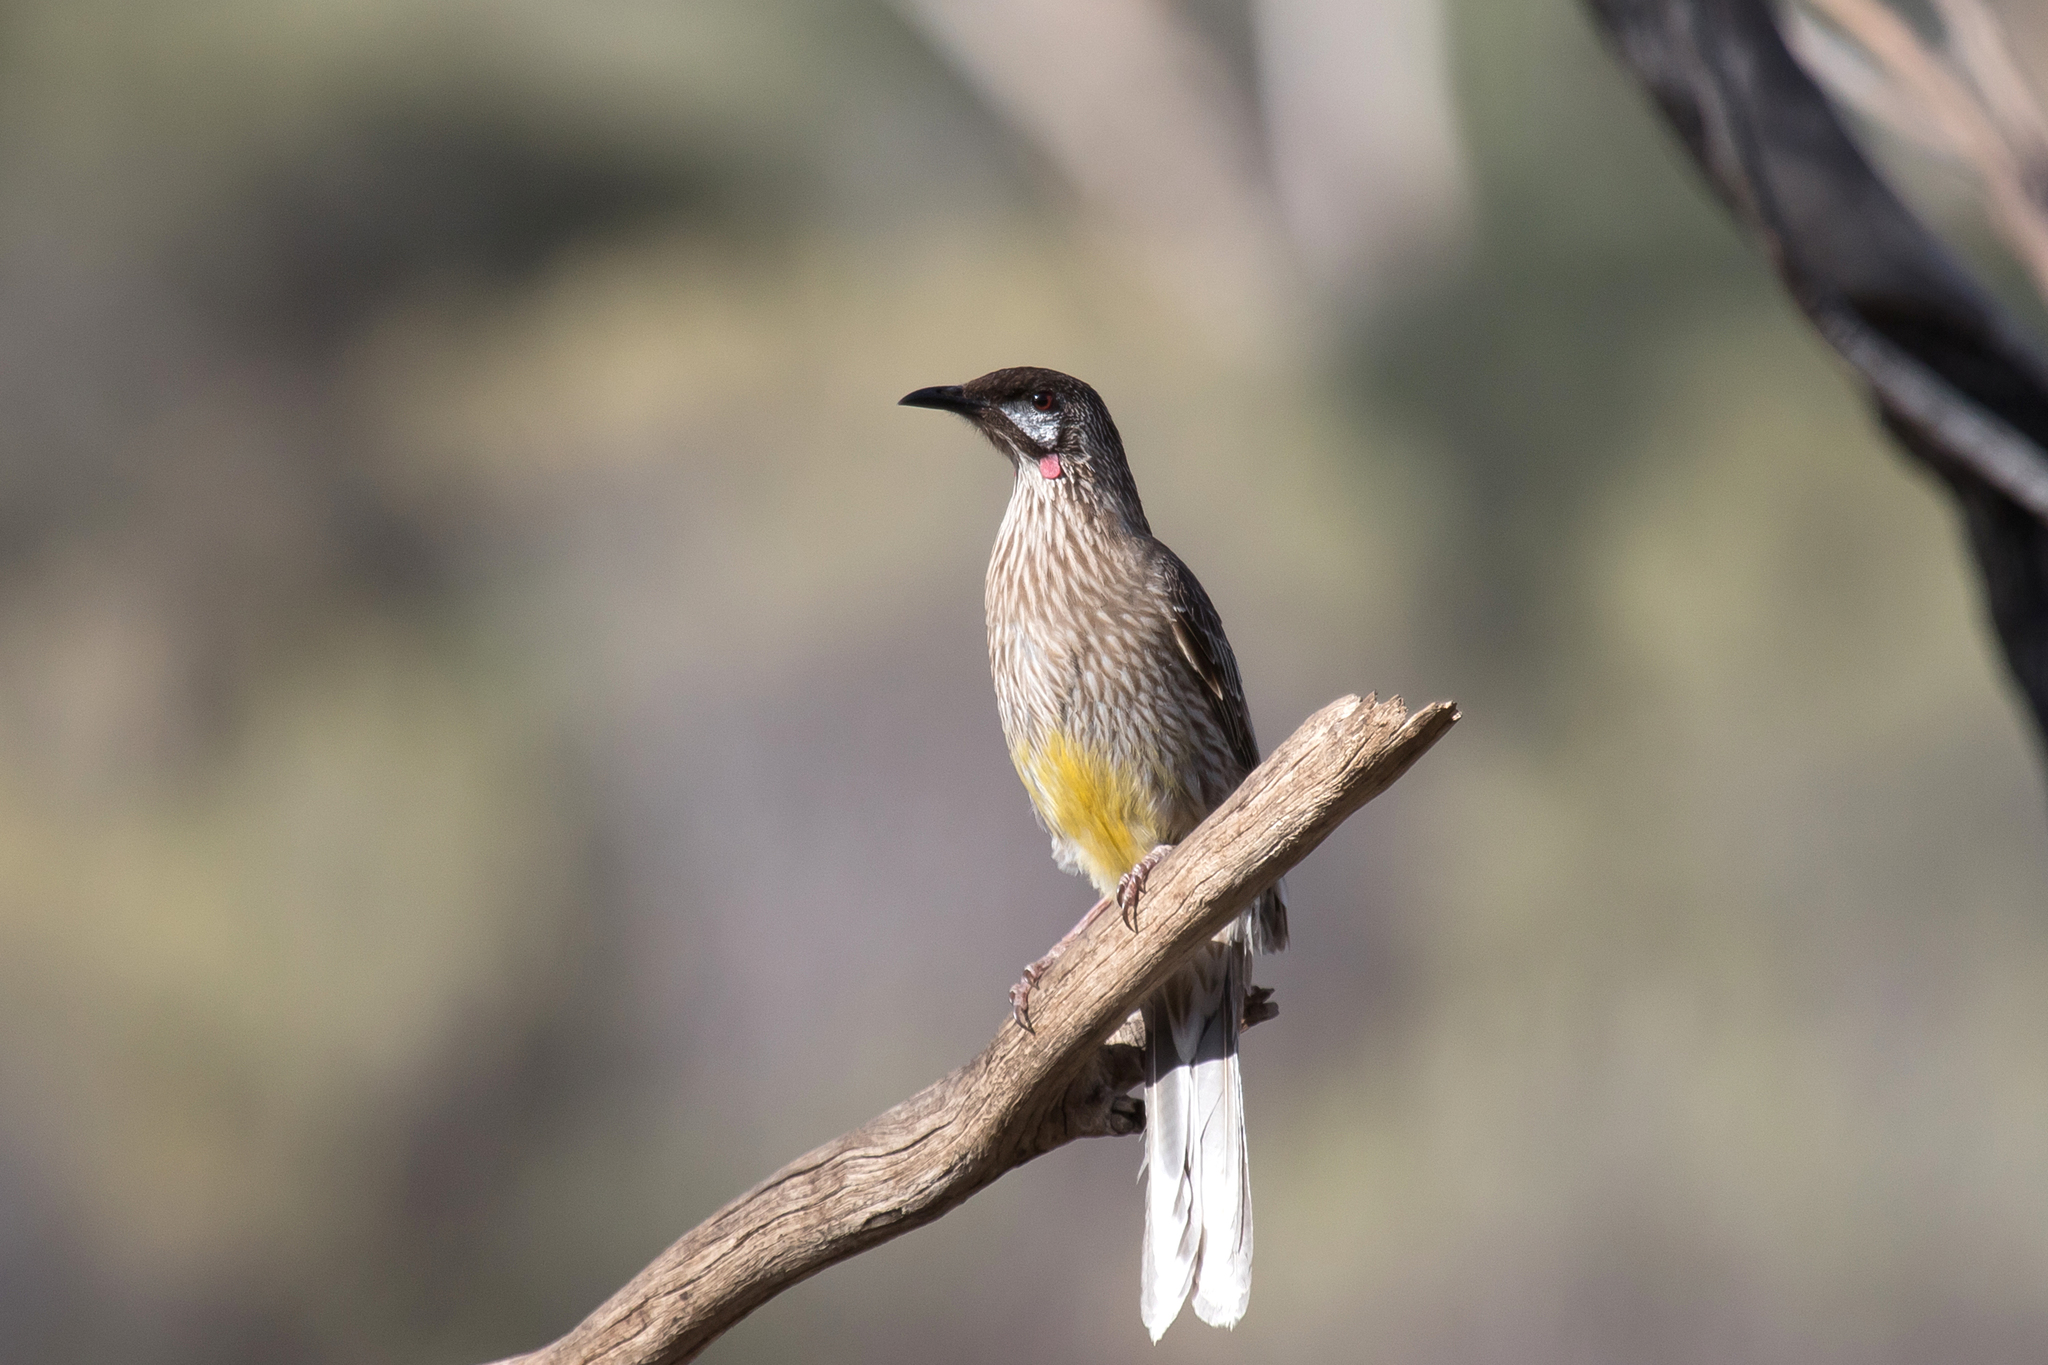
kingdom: Animalia
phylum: Chordata
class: Aves
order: Passeriformes
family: Meliphagidae
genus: Anthochaera
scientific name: Anthochaera carunculata
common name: Red wattlebird
